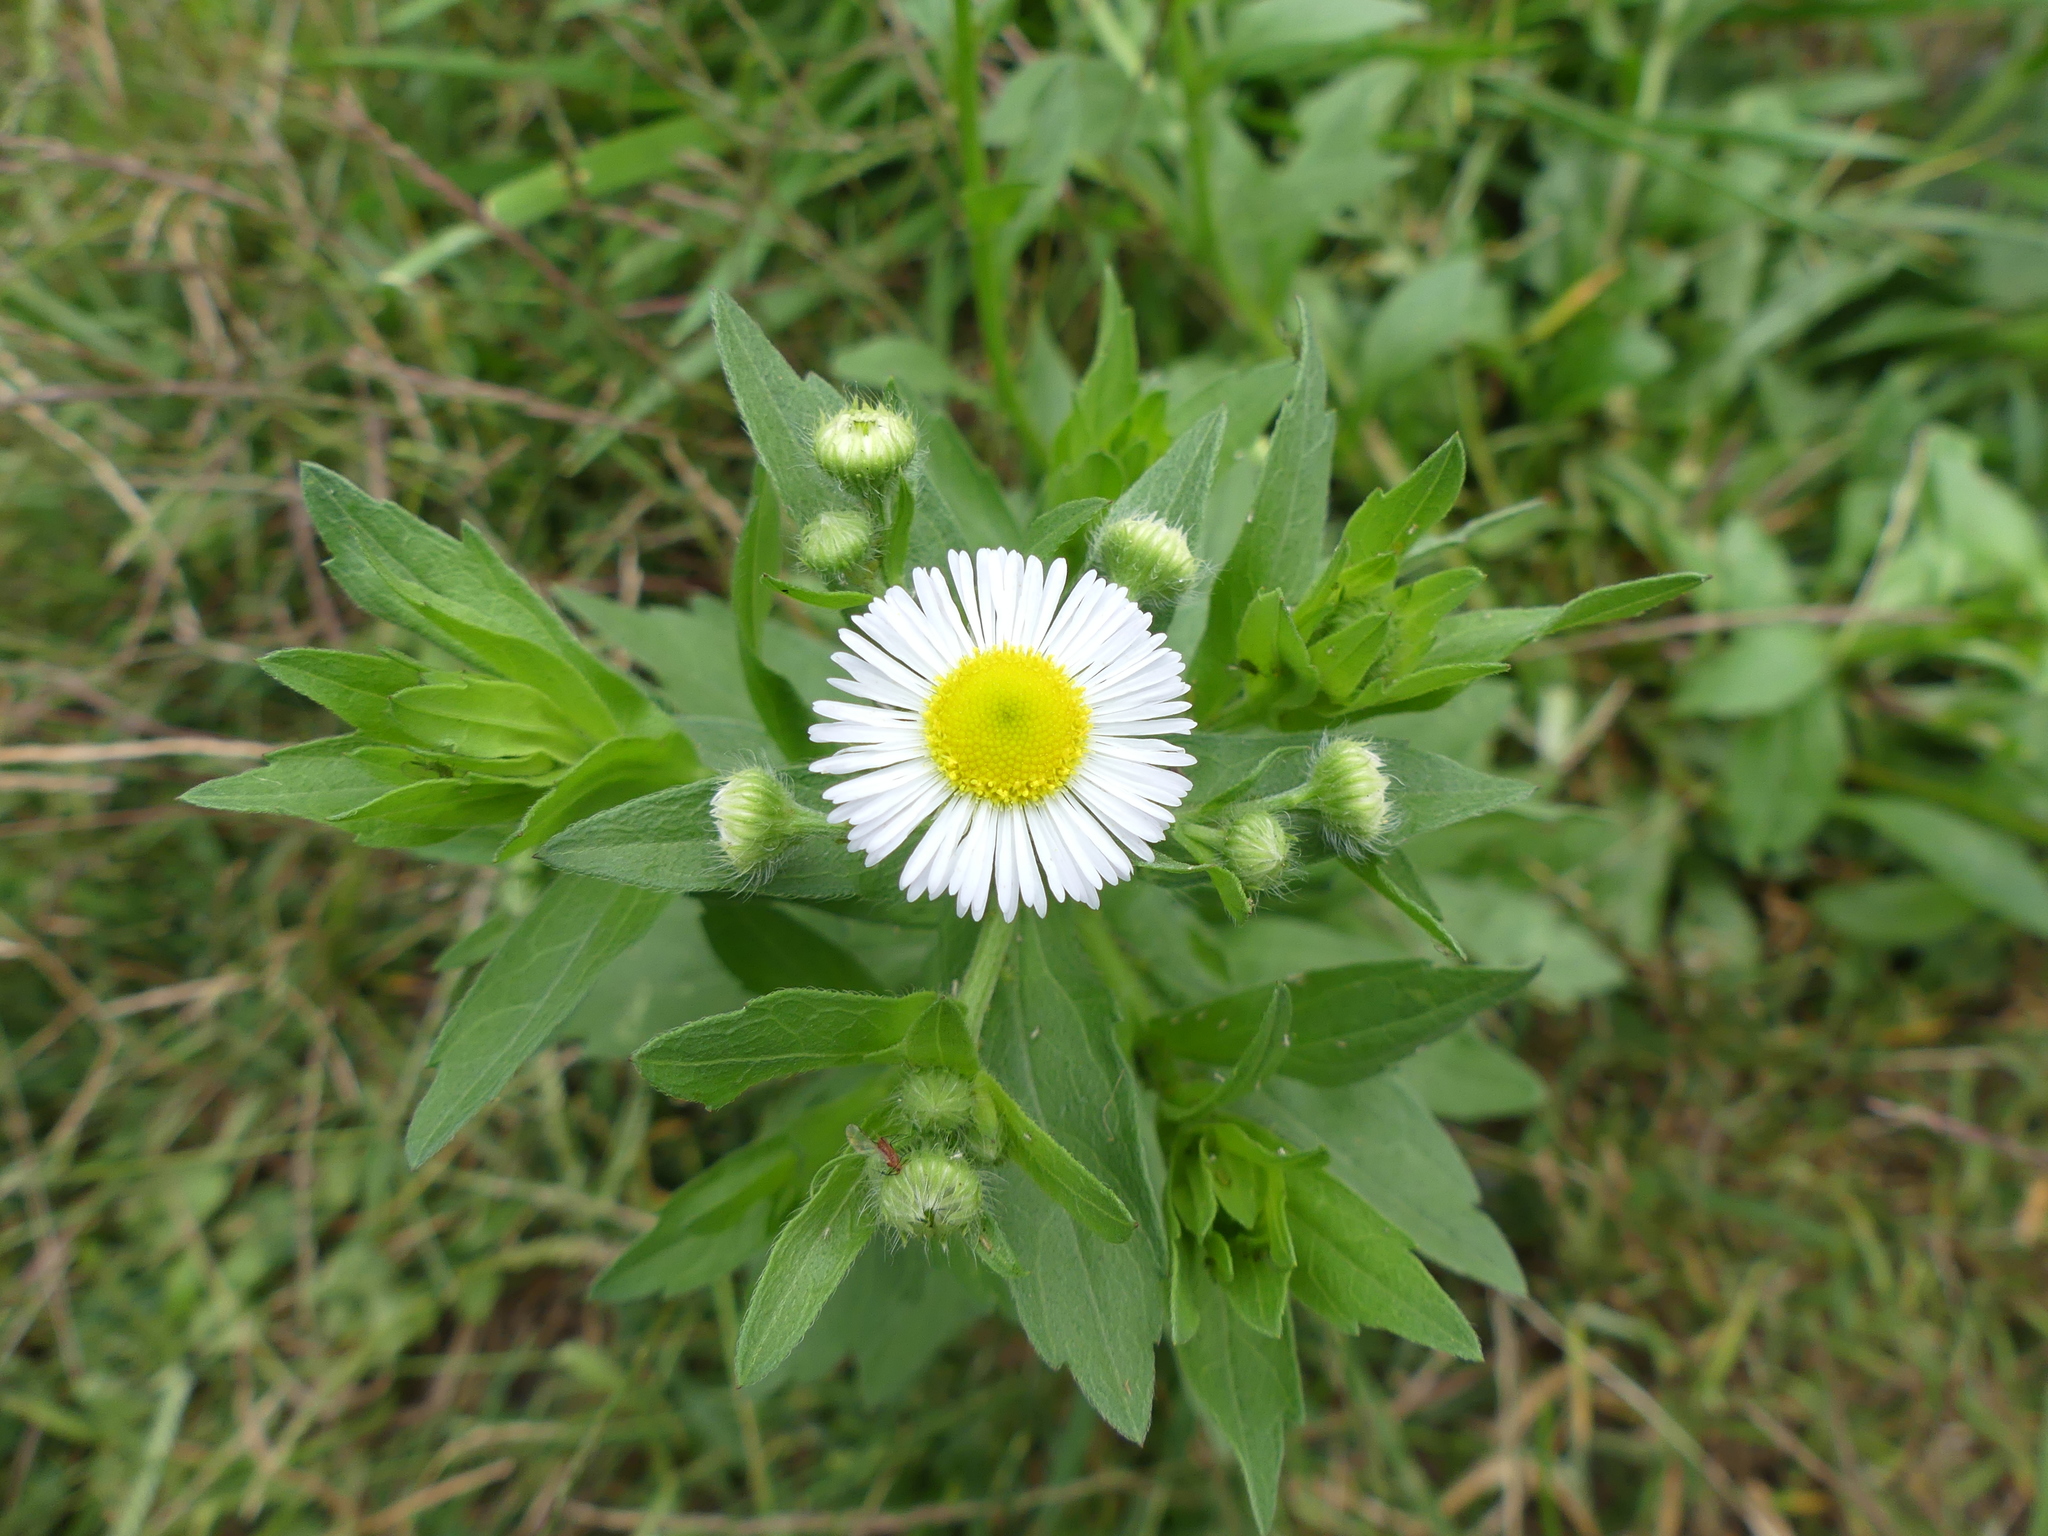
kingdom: Plantae
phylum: Tracheophyta
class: Magnoliopsida
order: Asterales
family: Asteraceae
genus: Erigeron
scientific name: Erigeron annuus
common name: Tall fleabane
